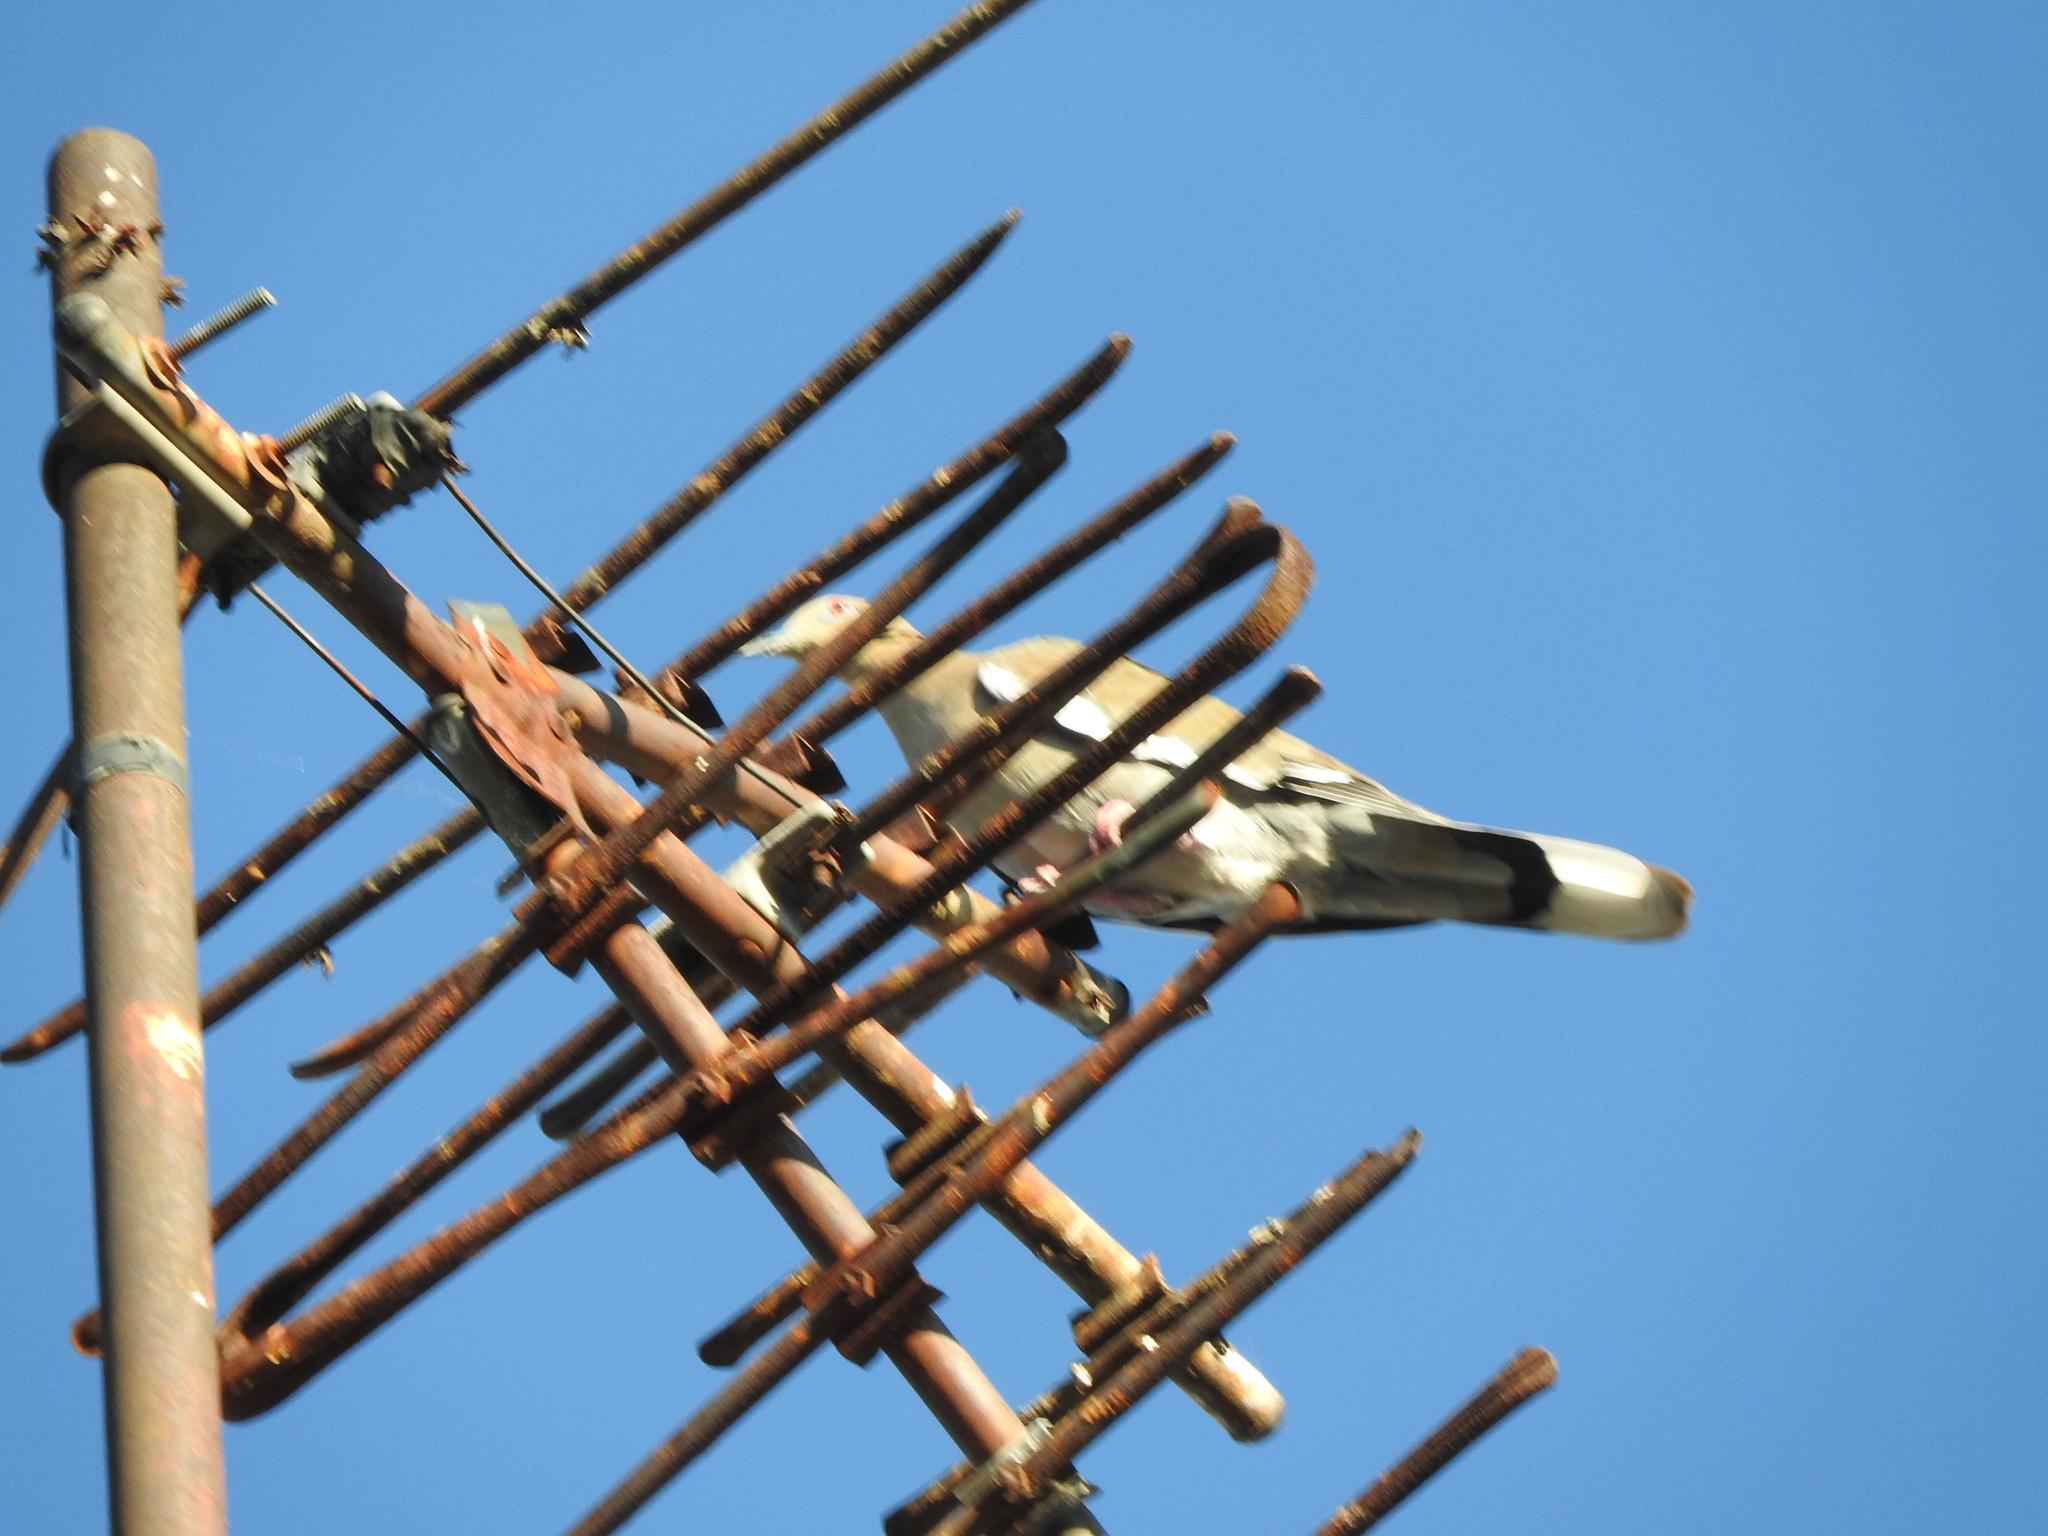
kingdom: Animalia
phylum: Chordata
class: Aves
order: Columbiformes
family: Columbidae
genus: Zenaida
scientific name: Zenaida asiatica
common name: White-winged dove
